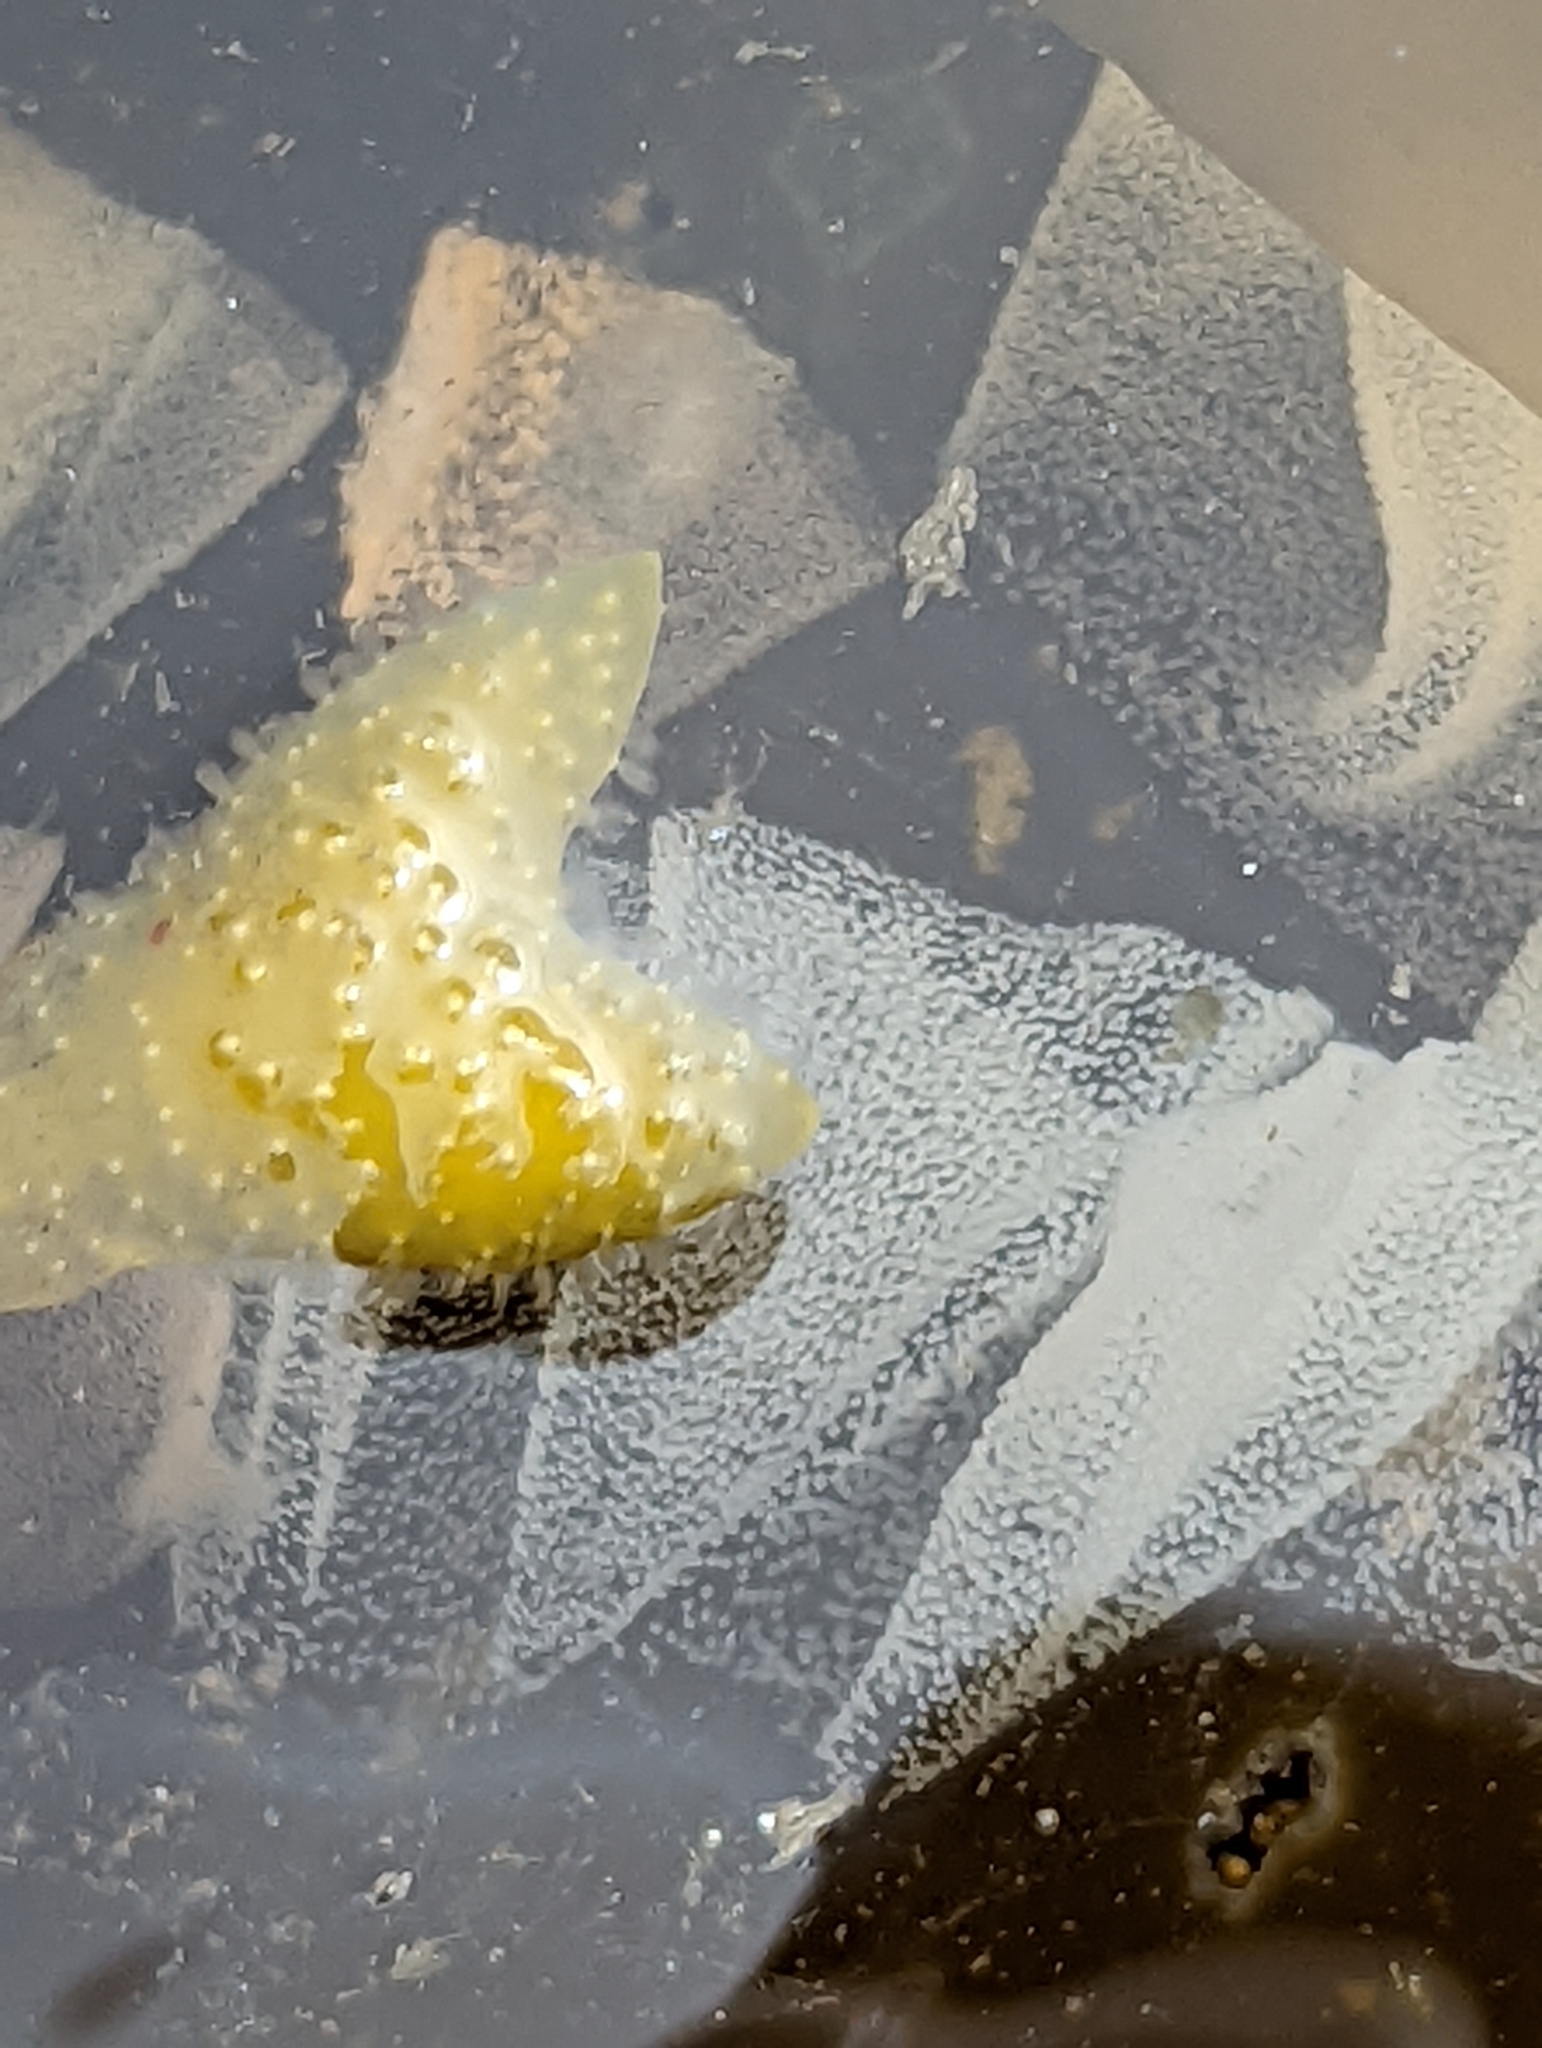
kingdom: Animalia
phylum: Mollusca
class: Gastropoda
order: Nudibranchia
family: Tethydidae
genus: Melibe
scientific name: Melibe leonina
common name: Lion nudibranch
